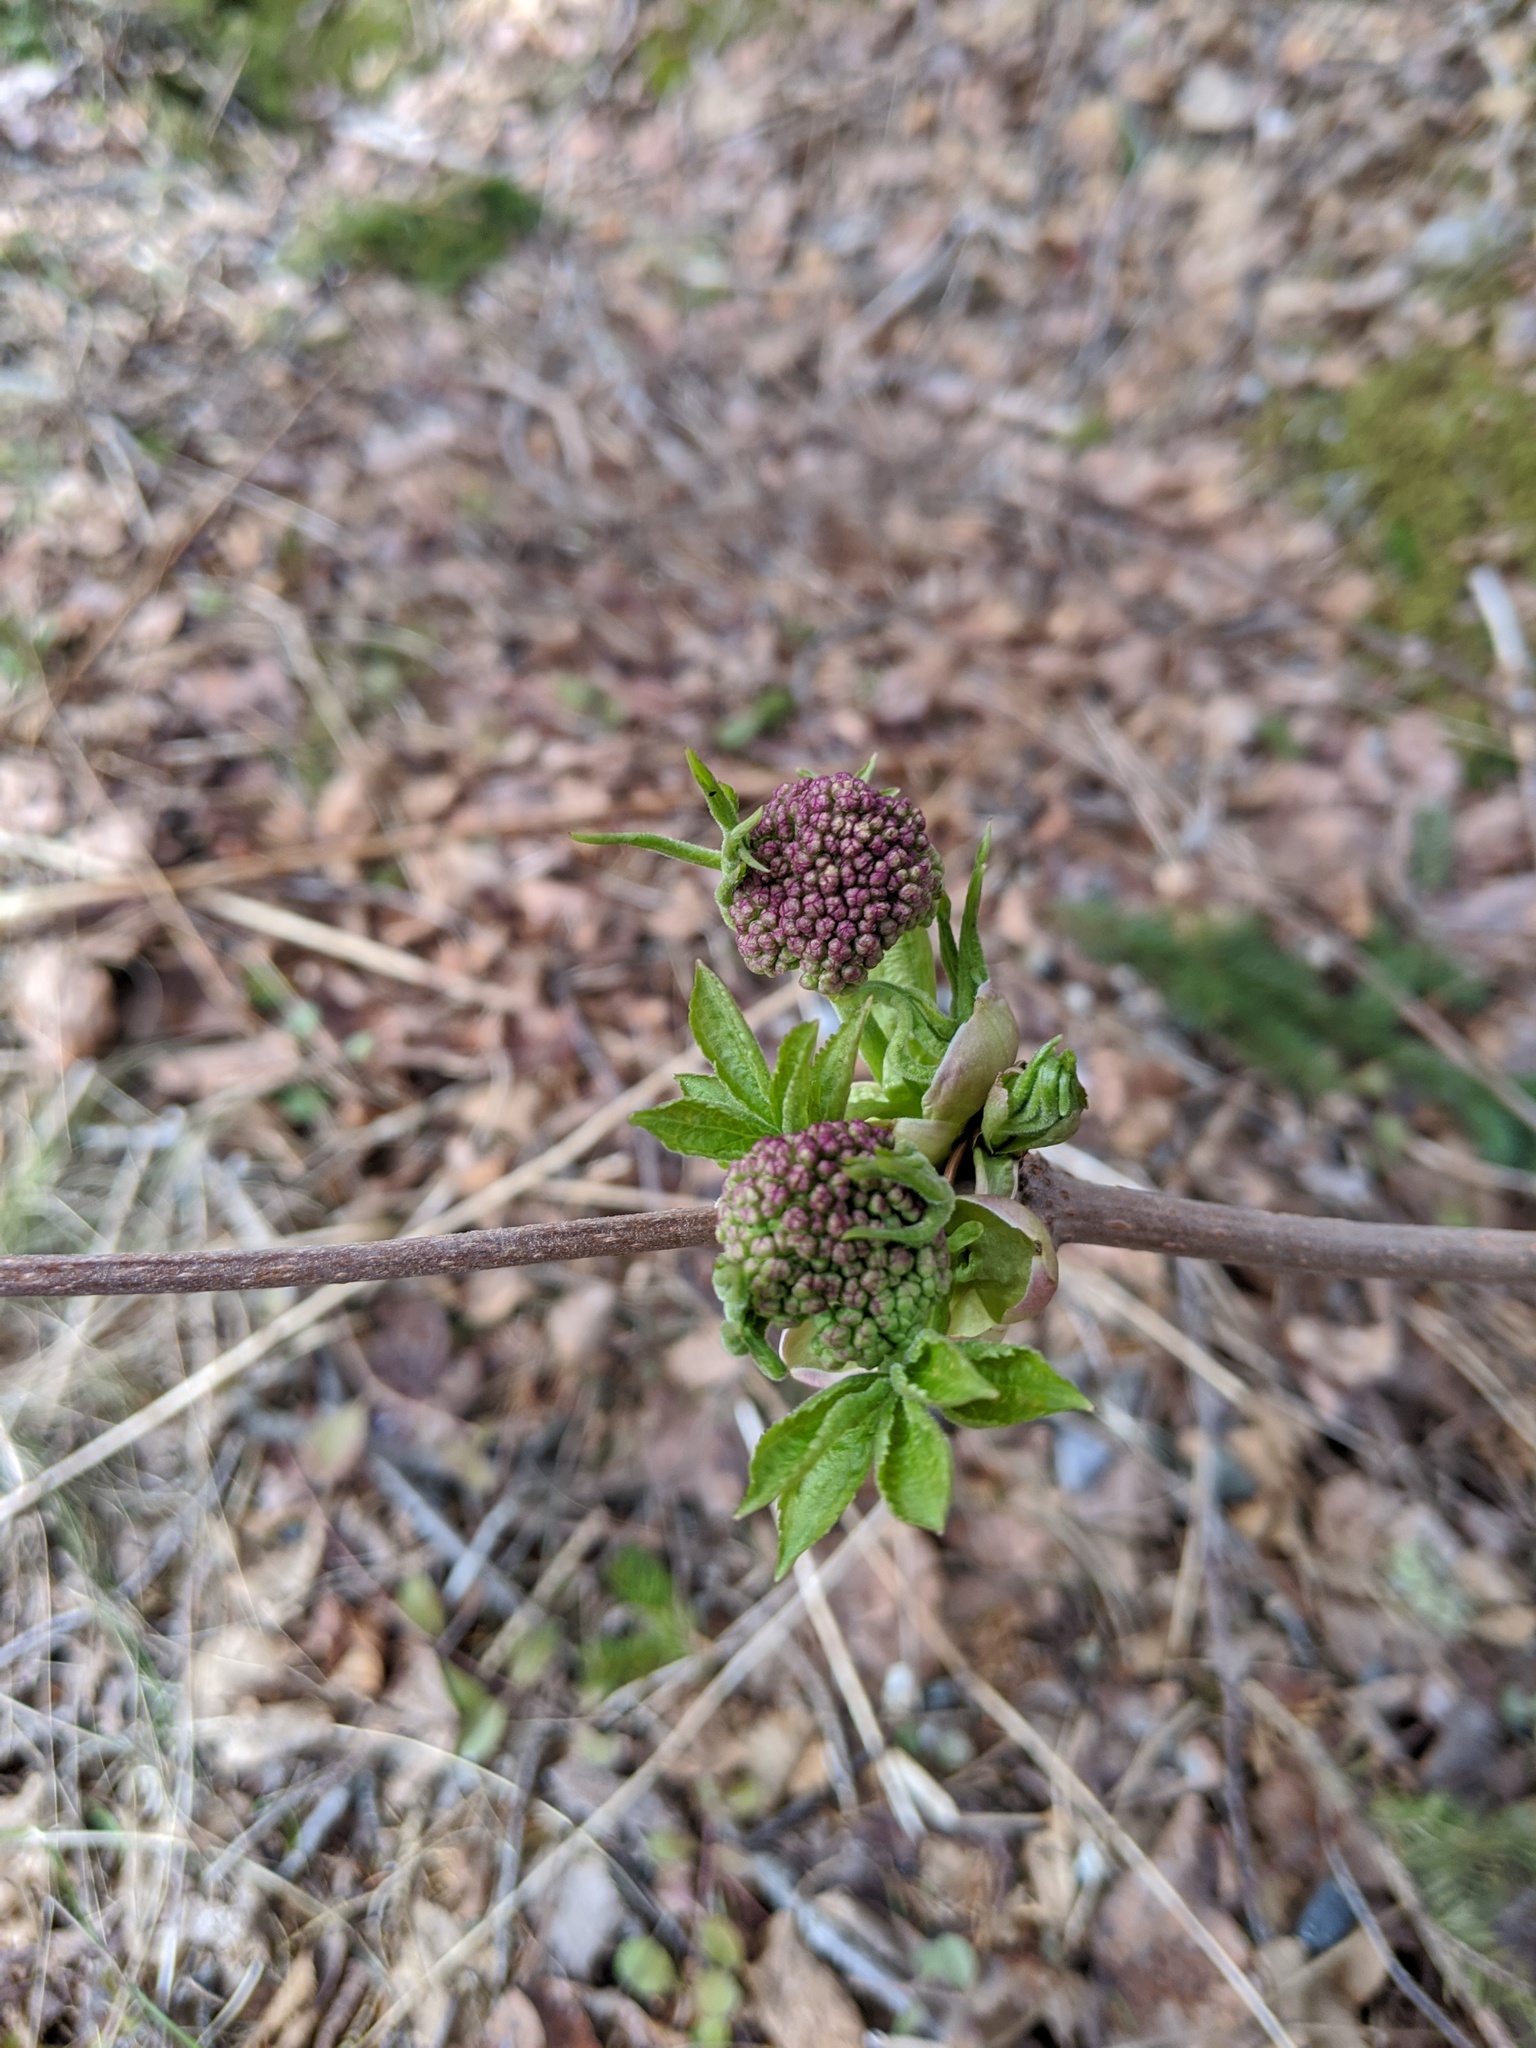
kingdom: Plantae
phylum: Tracheophyta
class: Magnoliopsida
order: Dipsacales
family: Viburnaceae
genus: Sambucus
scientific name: Sambucus racemosa
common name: Red-berried elder
